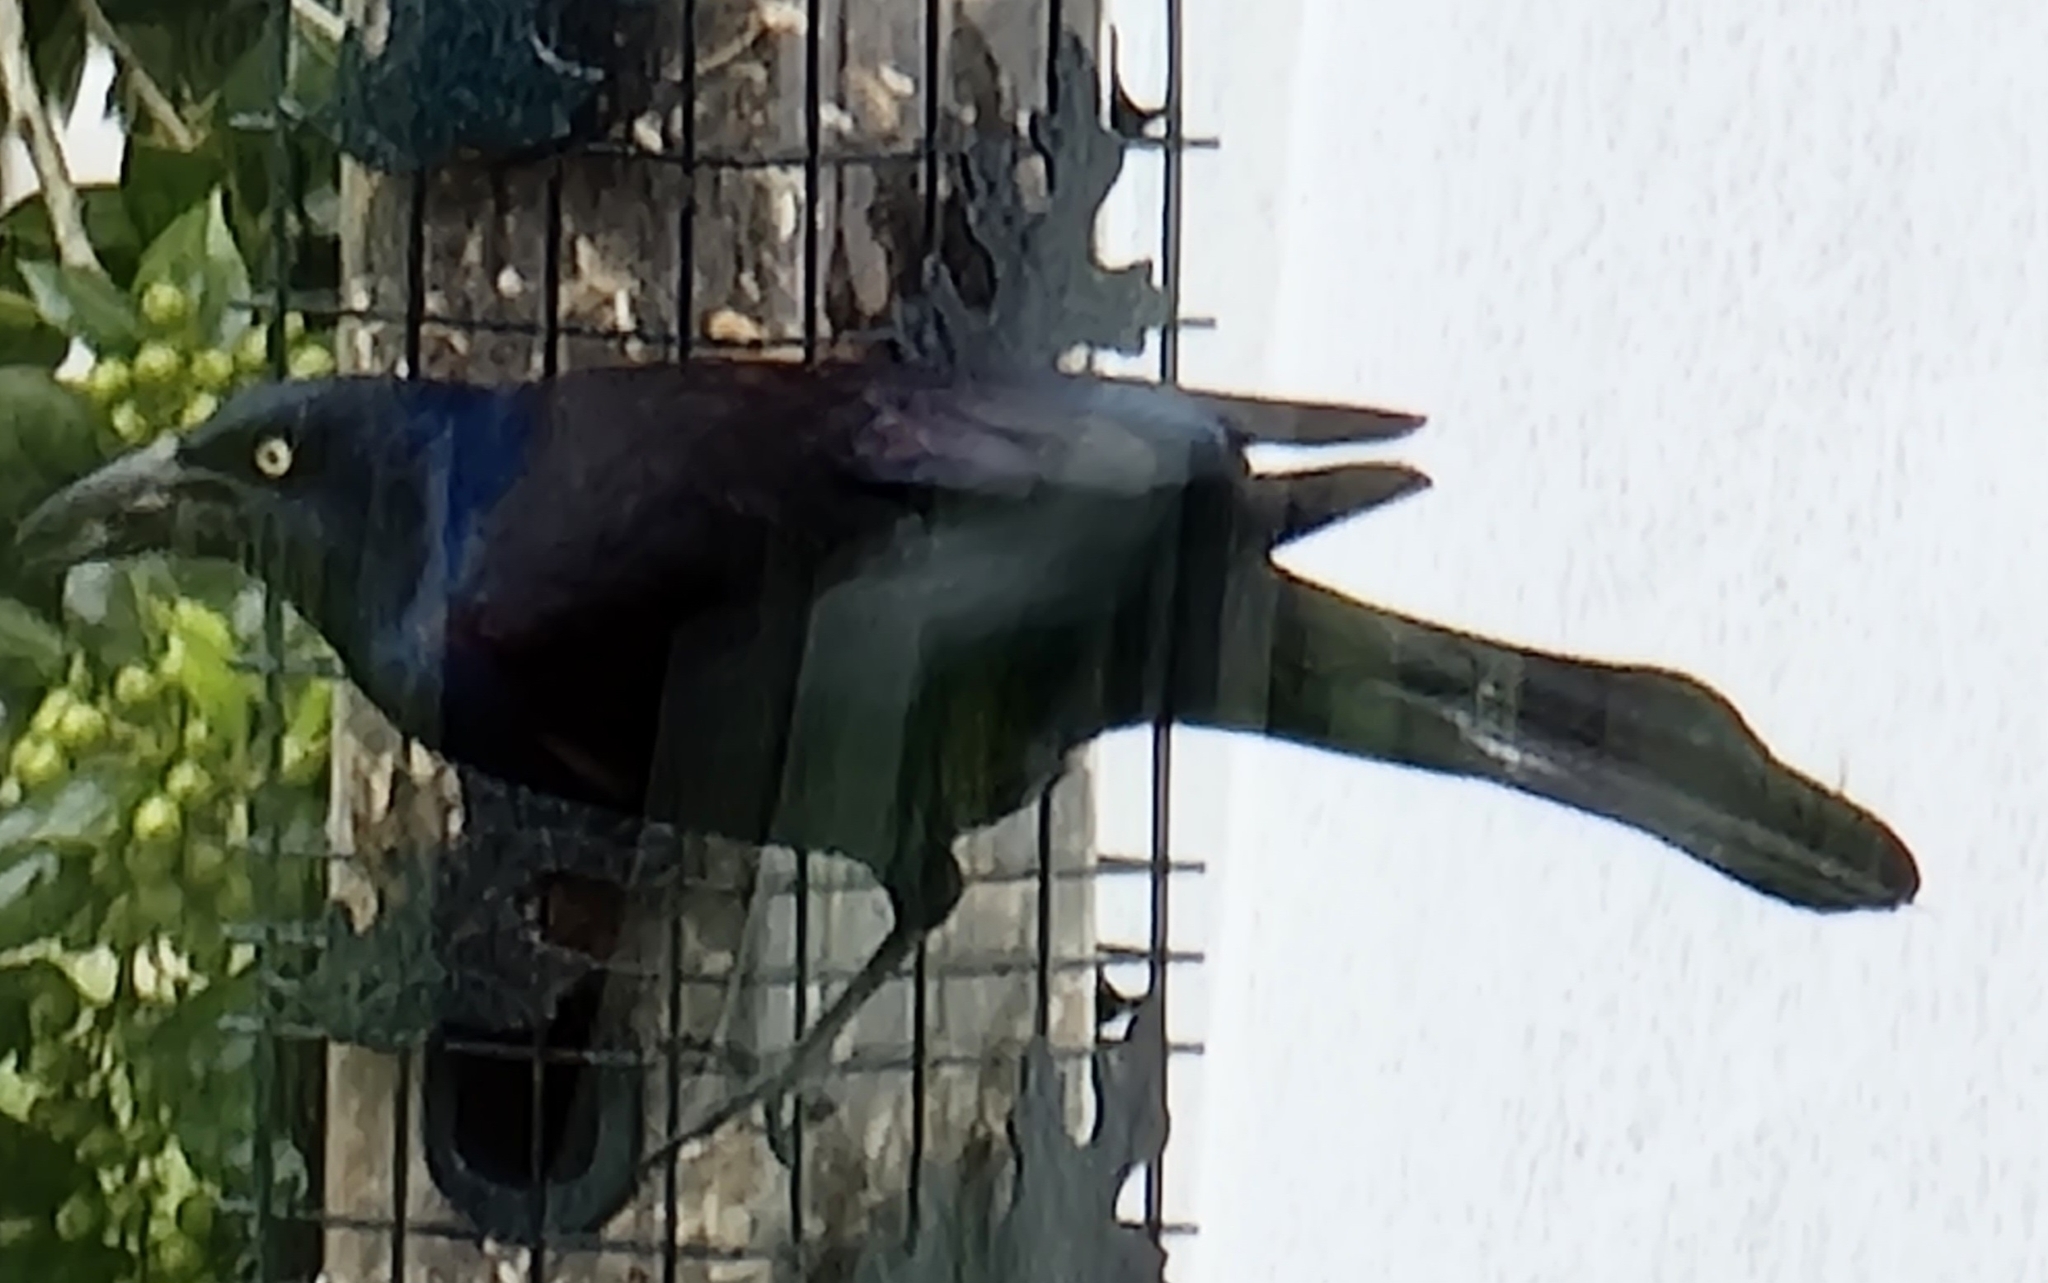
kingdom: Animalia
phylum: Chordata
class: Aves
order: Passeriformes
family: Icteridae
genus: Quiscalus
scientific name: Quiscalus quiscula
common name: Common grackle
